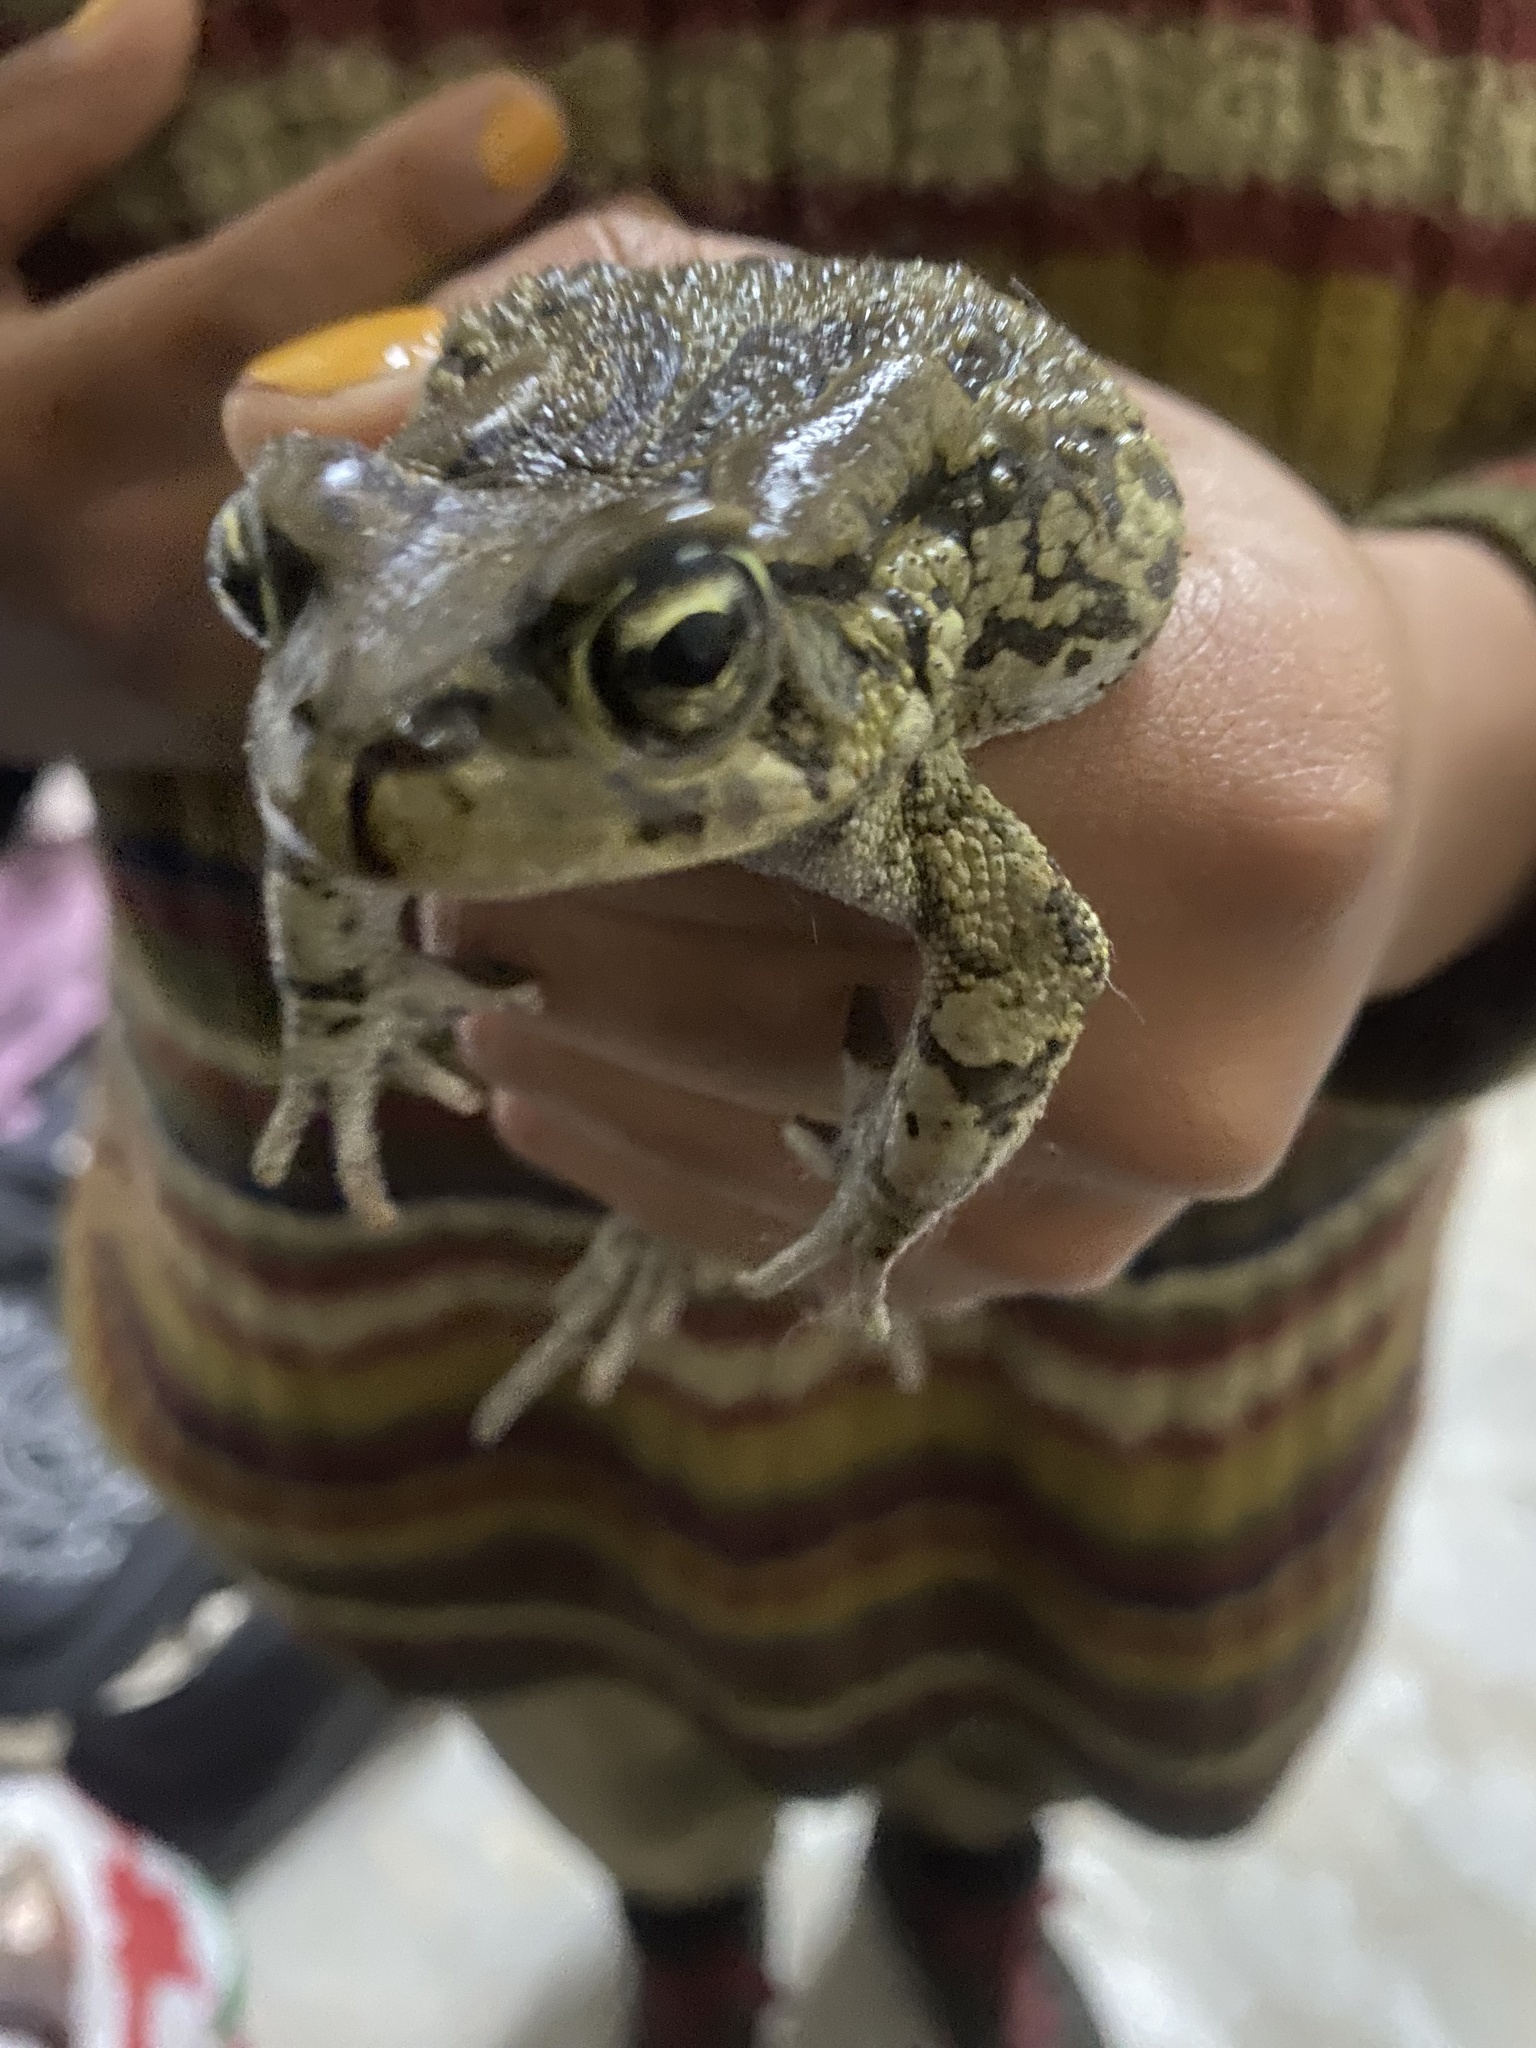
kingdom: Animalia
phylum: Chordata
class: Amphibia
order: Anura
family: Bufonidae
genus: Sclerophrys
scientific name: Sclerophrys capensis
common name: Ranger’s toad
